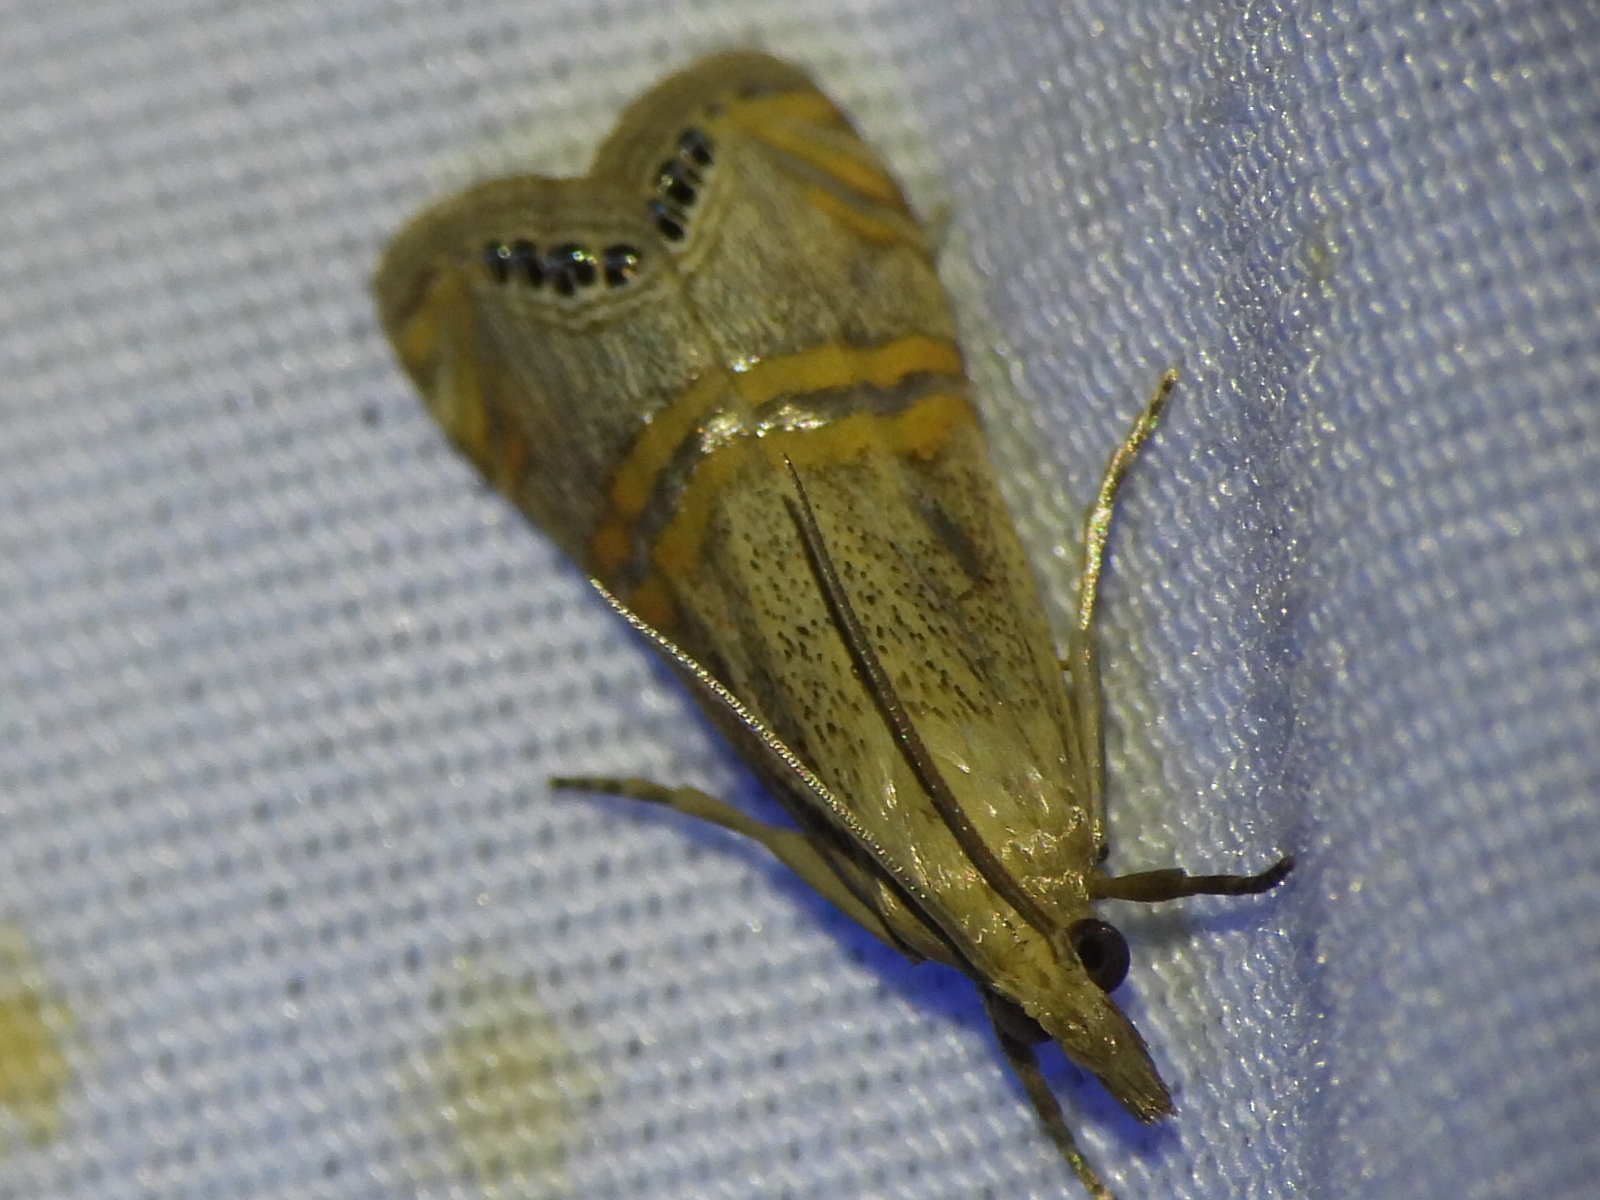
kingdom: Animalia
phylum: Arthropoda
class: Insecta
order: Lepidoptera
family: Crambidae
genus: Euchromius
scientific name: Euchromius ocellea
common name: Necklace veneer moth
